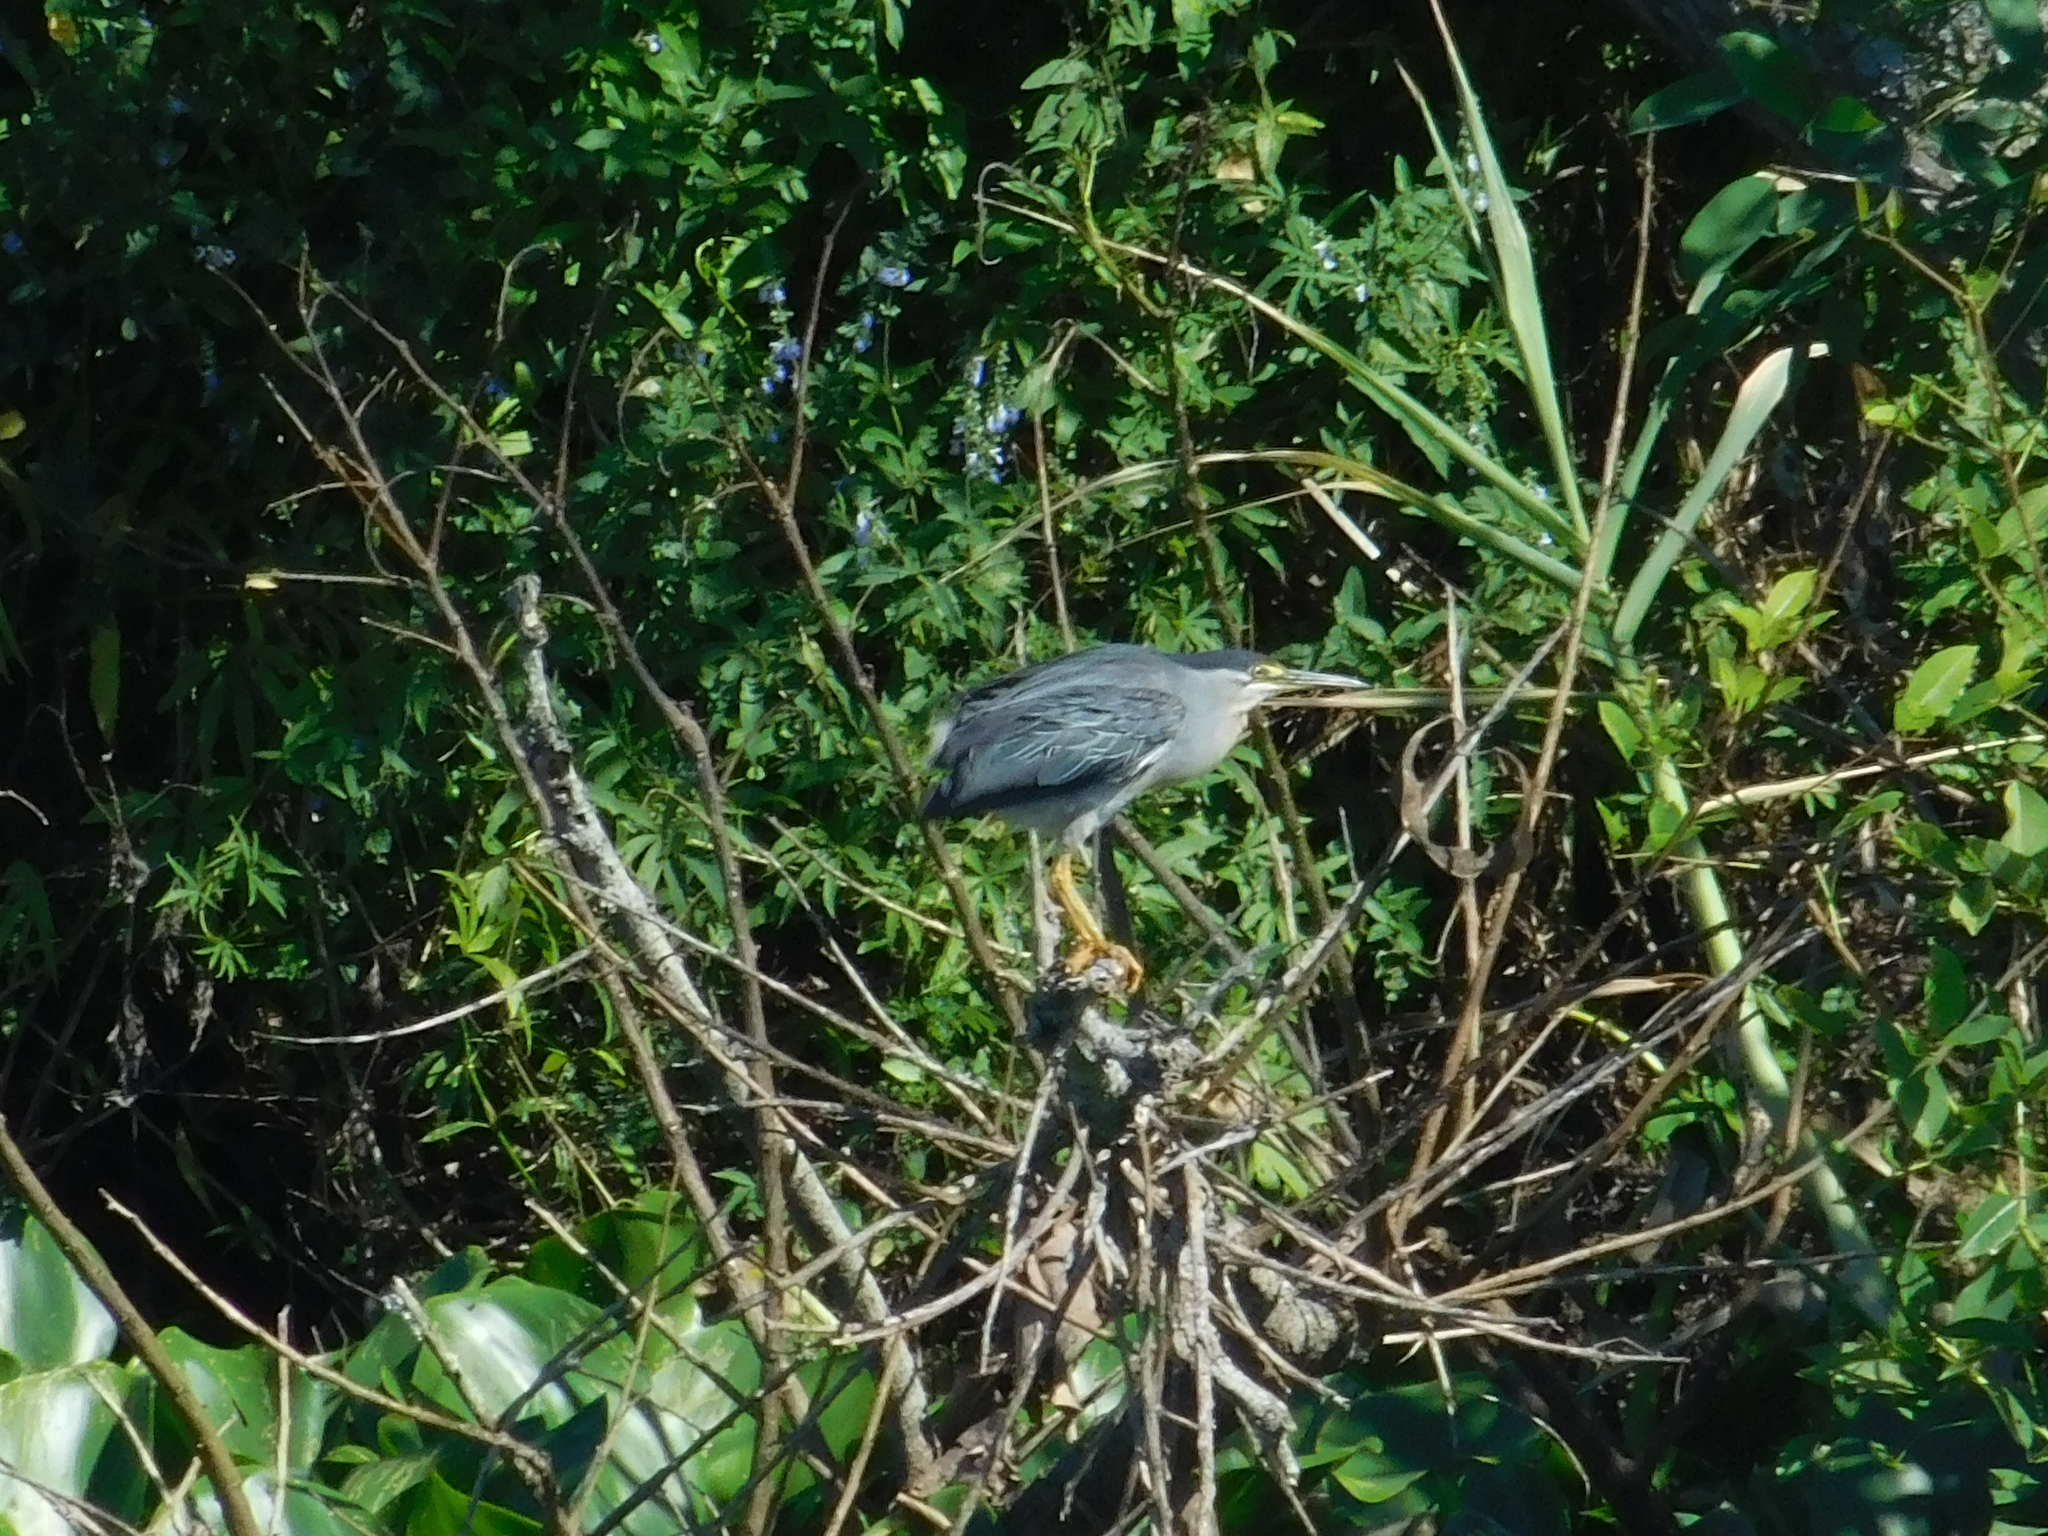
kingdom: Animalia
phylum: Chordata
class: Aves
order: Pelecaniformes
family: Ardeidae
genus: Butorides
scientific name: Butorides striata
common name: Striated heron
